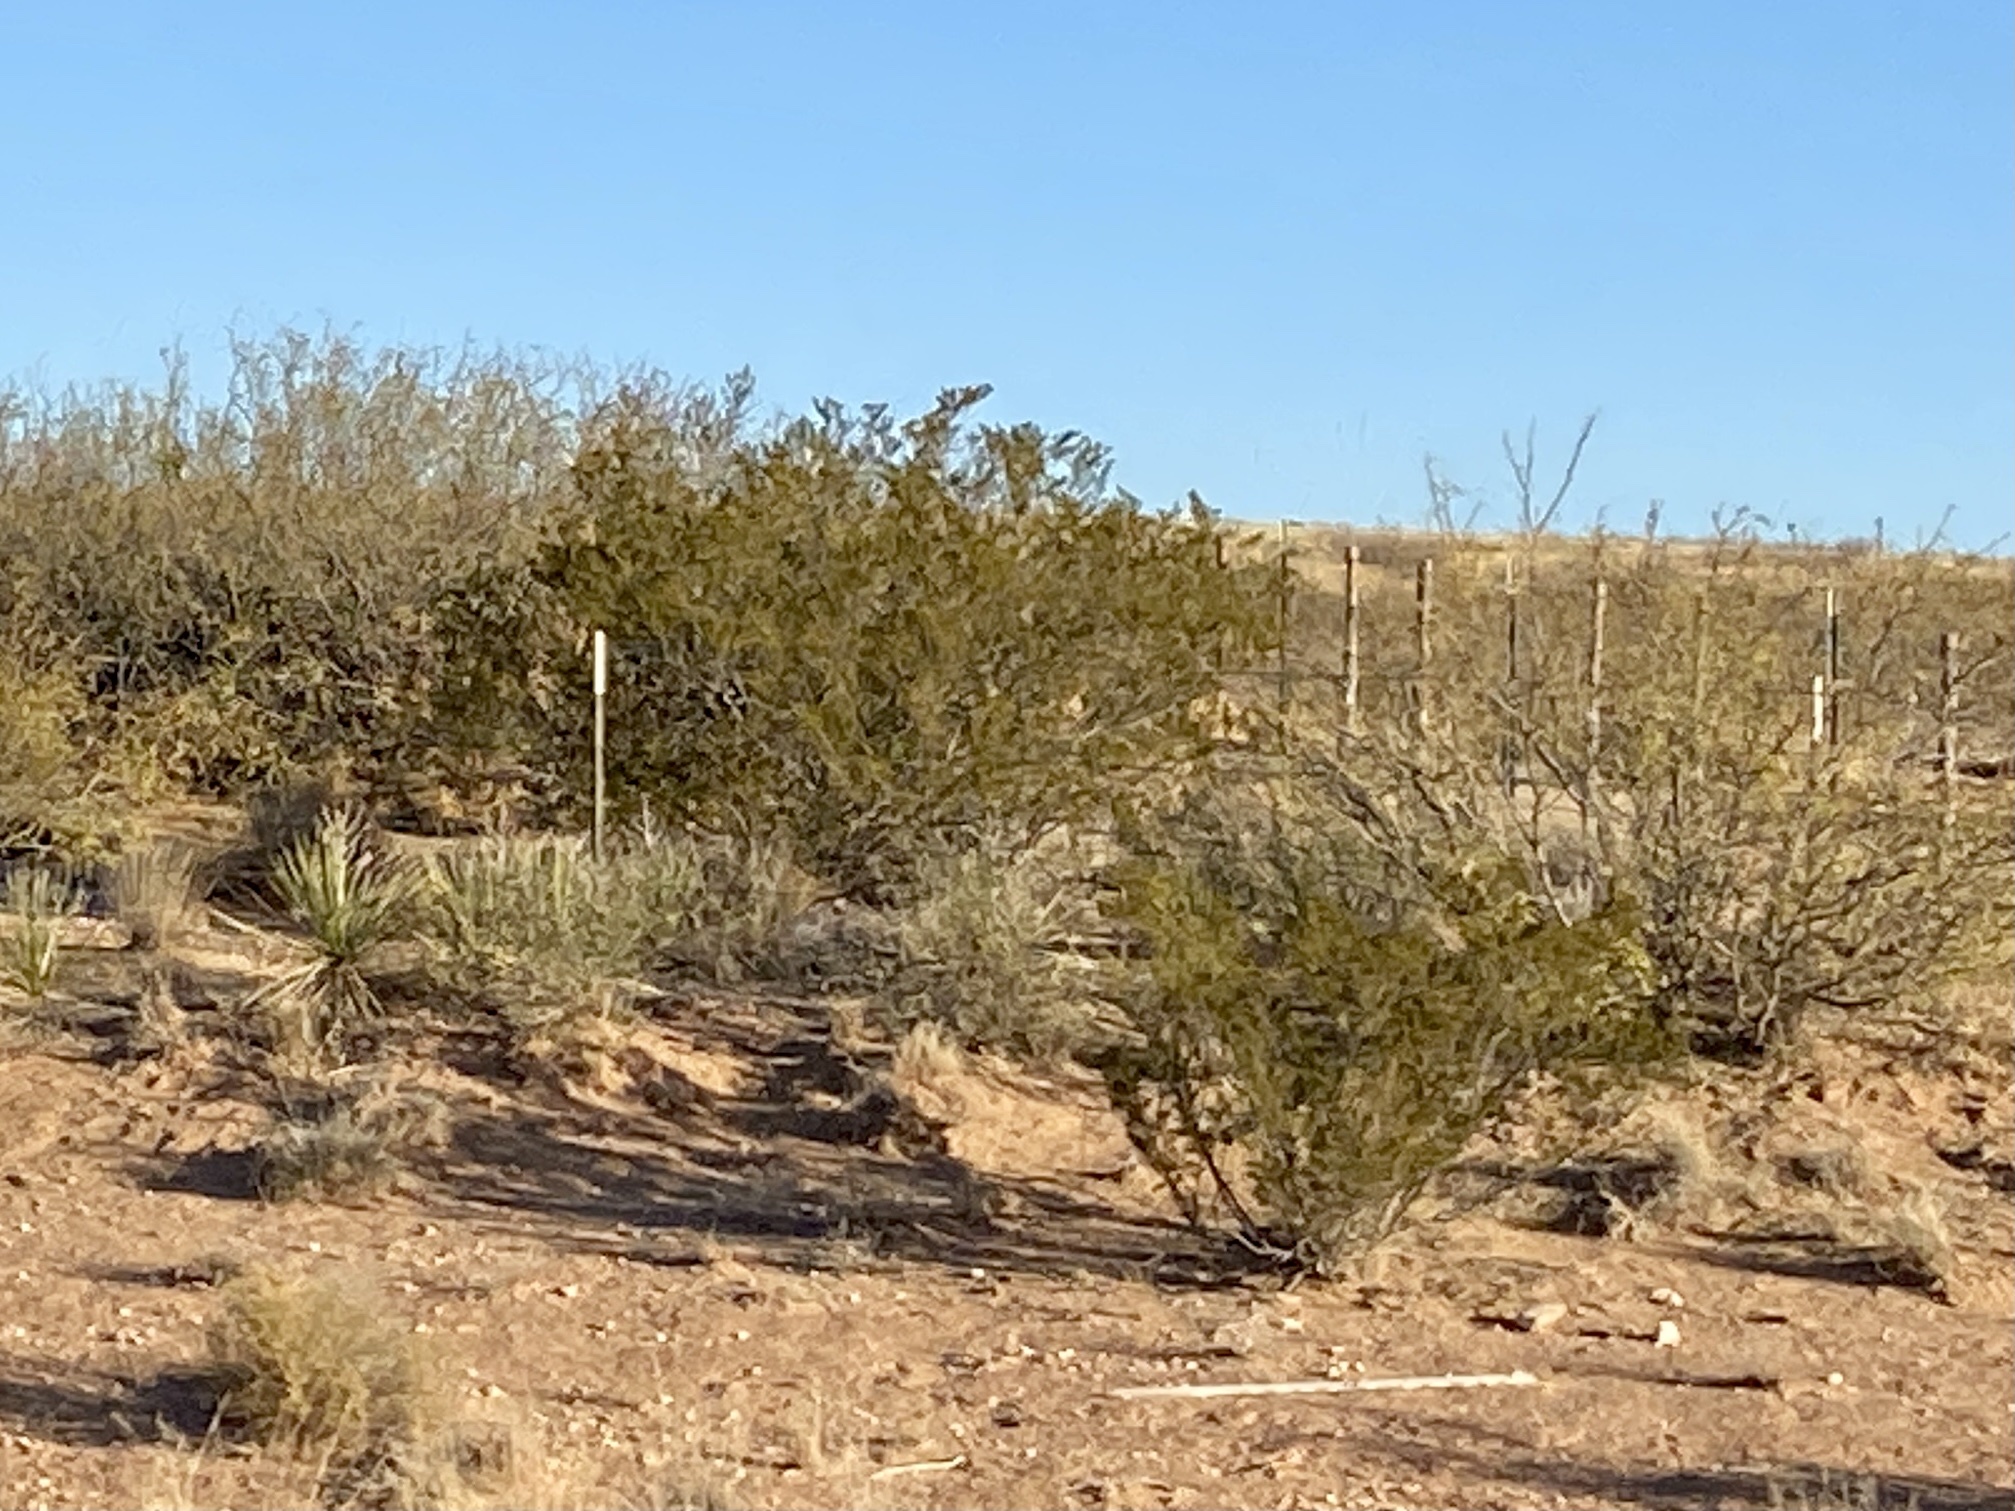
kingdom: Plantae
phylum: Tracheophyta
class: Magnoliopsida
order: Zygophyllales
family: Zygophyllaceae
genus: Larrea
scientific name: Larrea tridentata
